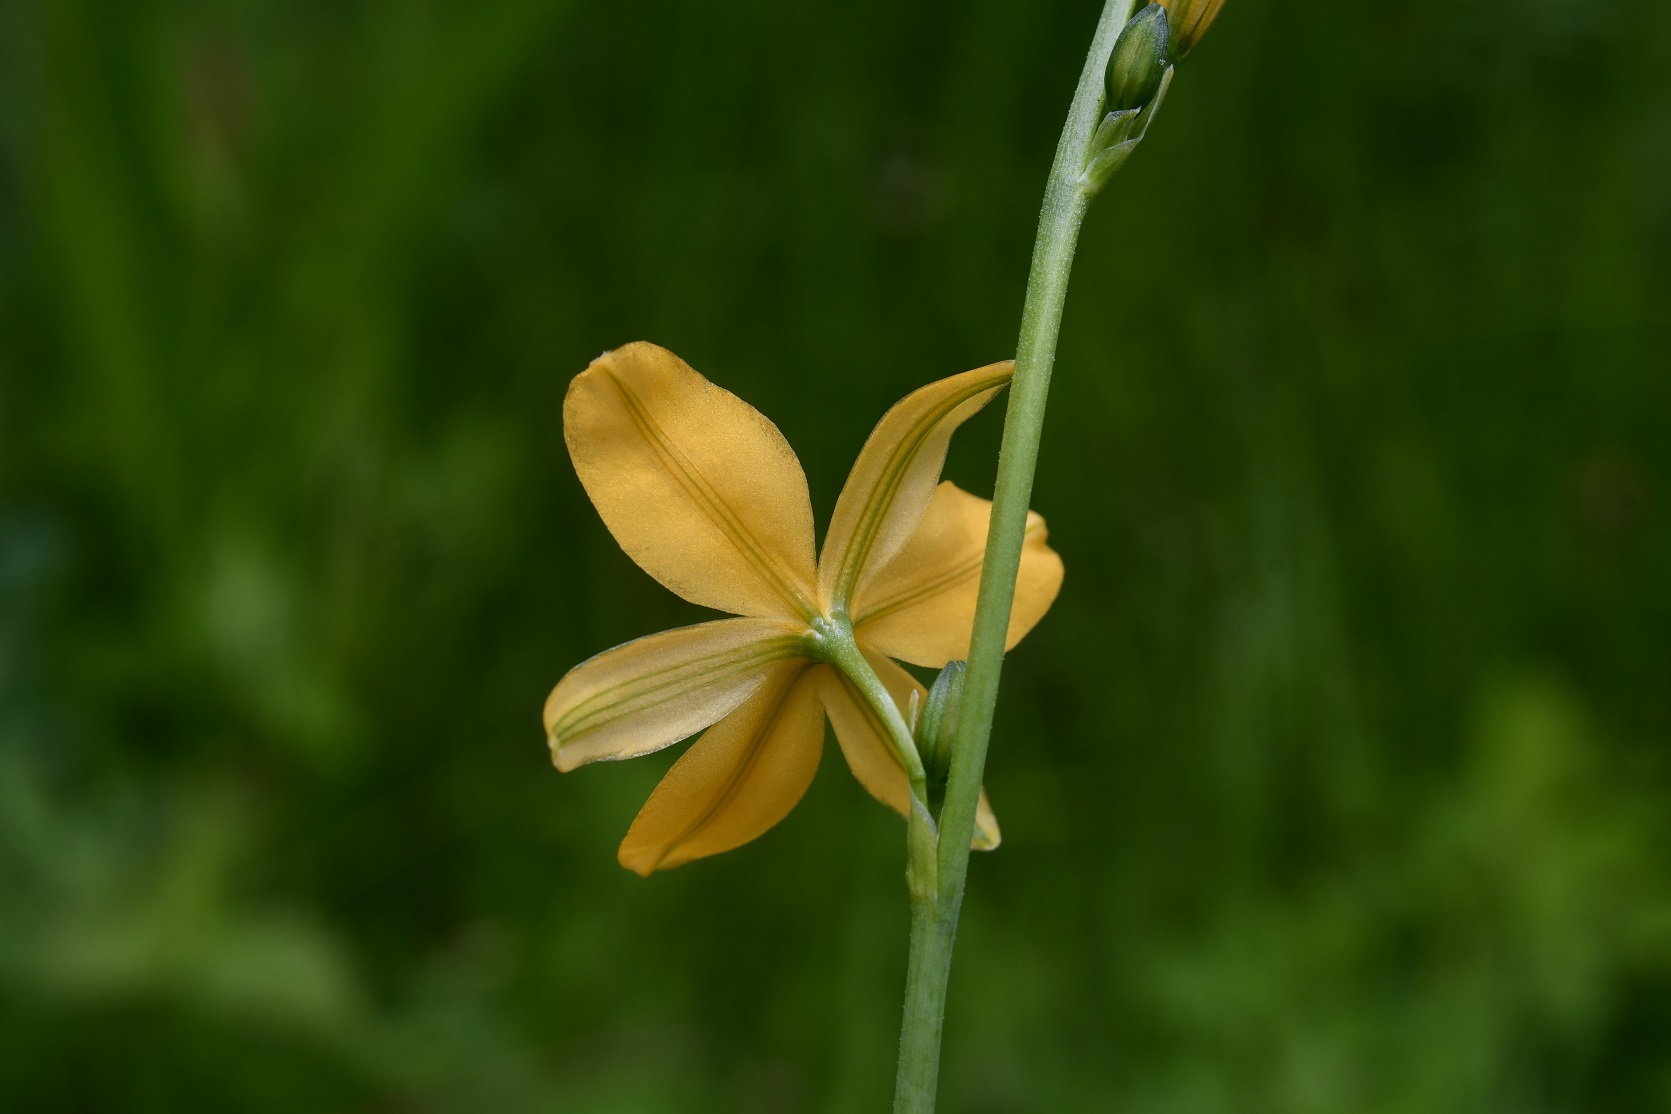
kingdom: Plantae
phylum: Tracheophyta
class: Liliopsida
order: Asparagales
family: Asparagaceae
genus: Echeandia
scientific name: Echeandia skinneri
